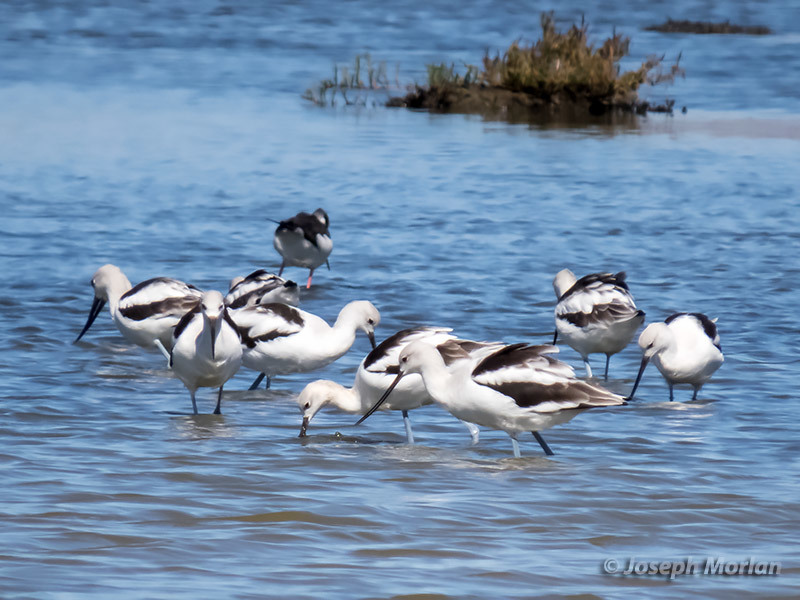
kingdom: Animalia
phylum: Chordata
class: Aves
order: Charadriiformes
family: Recurvirostridae
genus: Recurvirostra
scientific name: Recurvirostra americana
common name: American avocet
